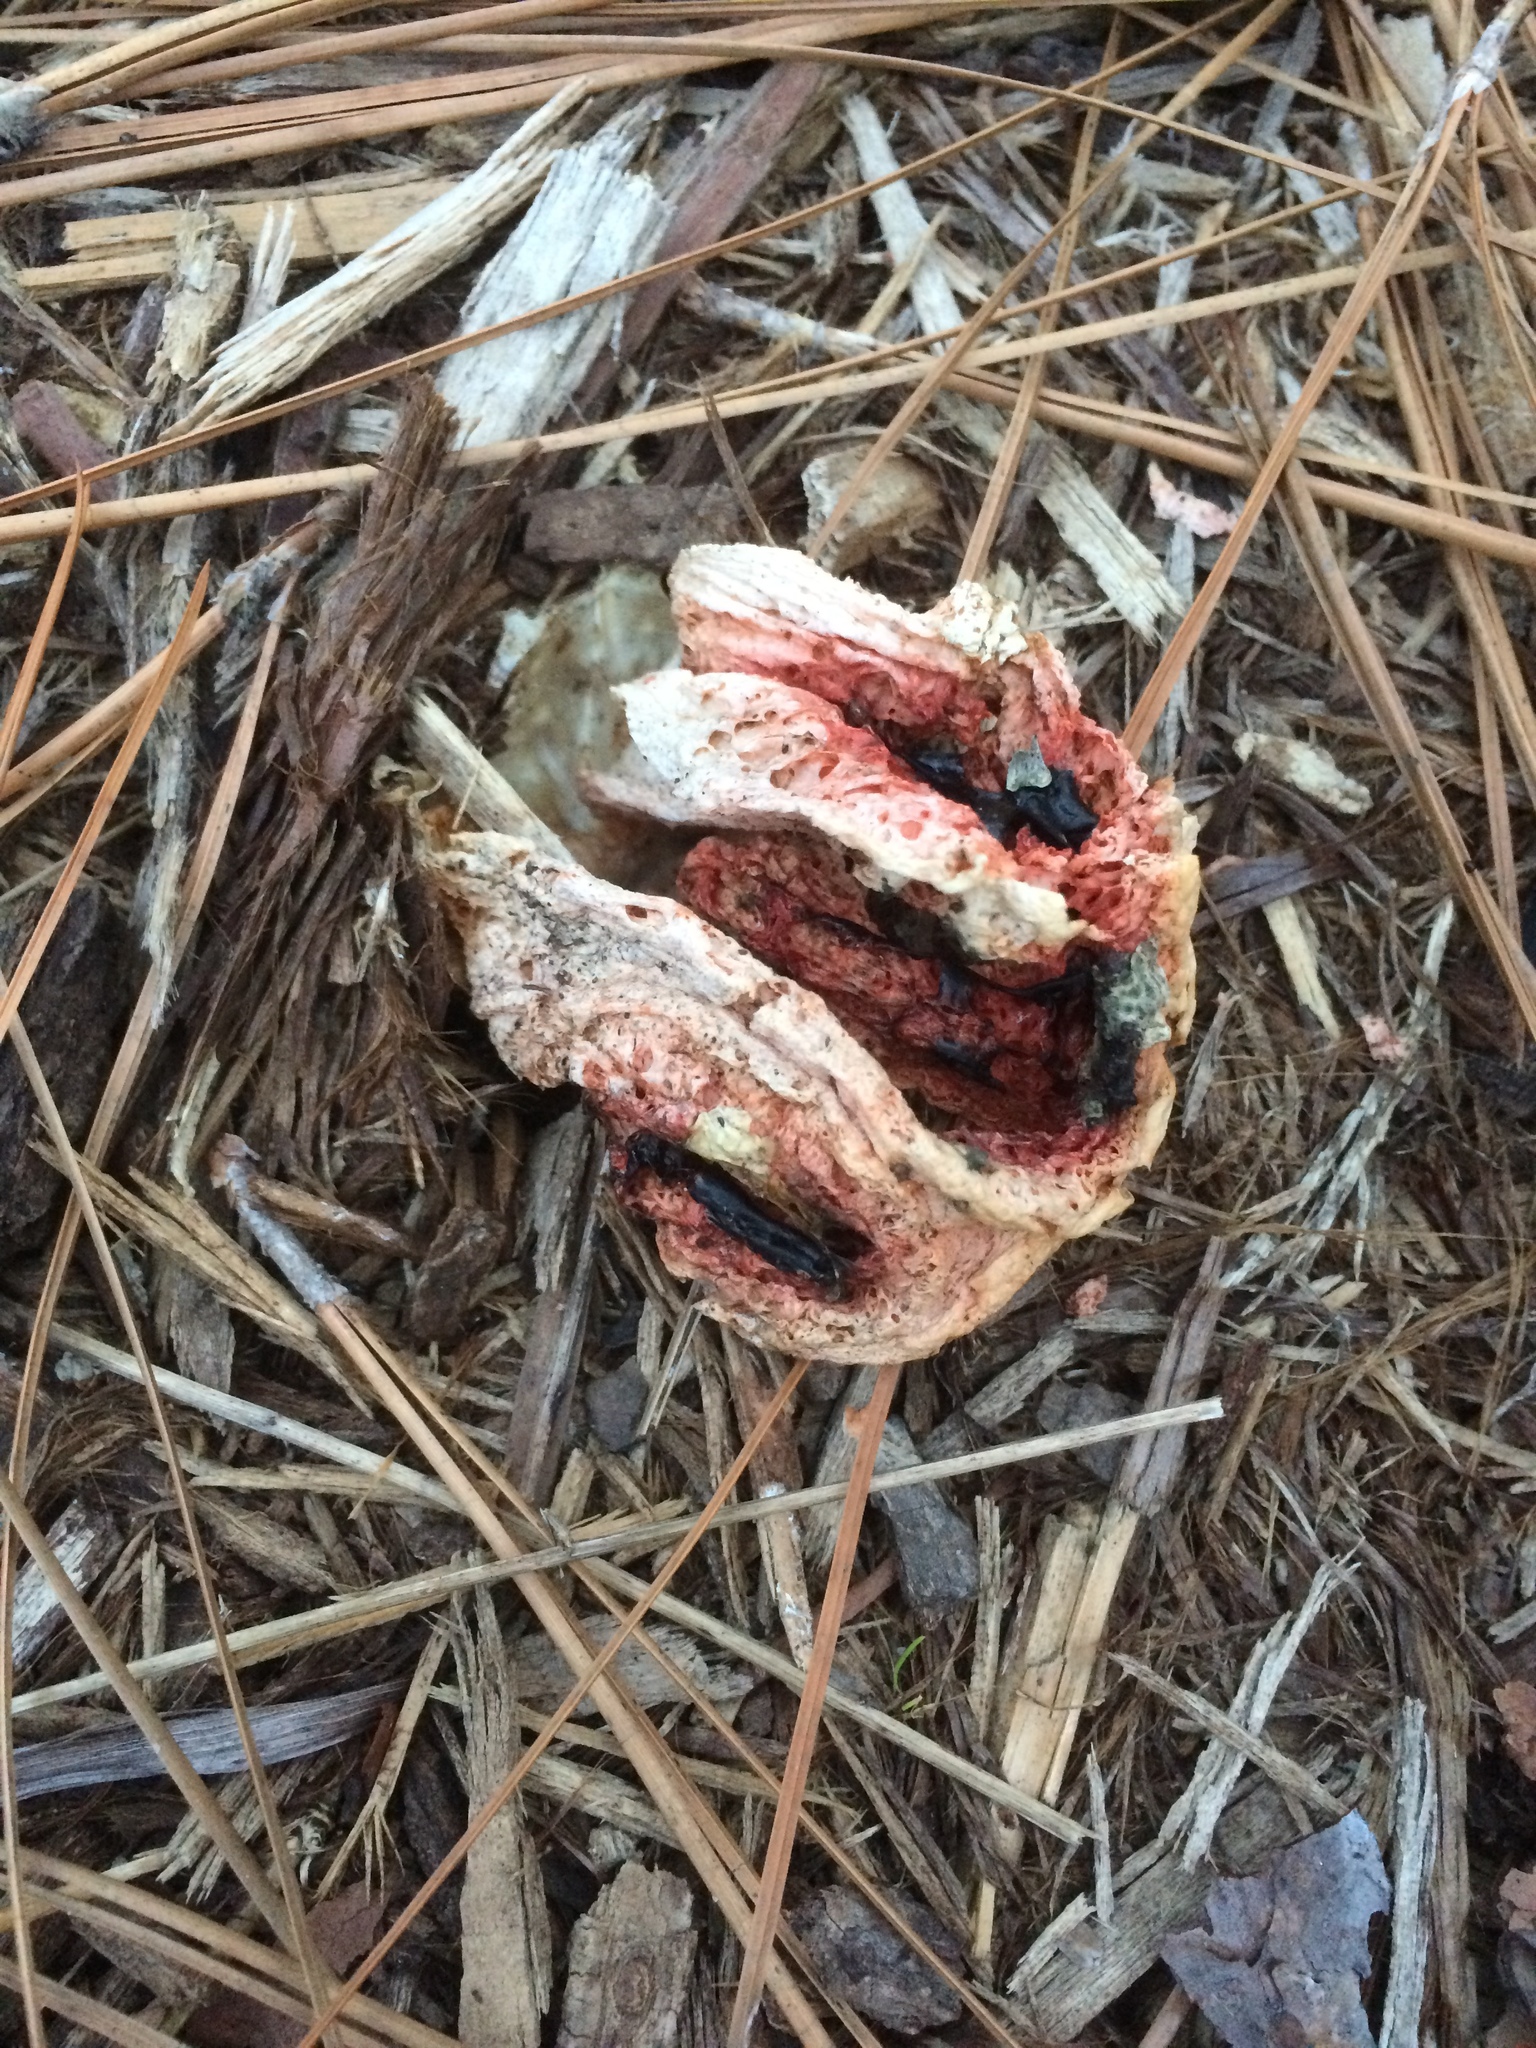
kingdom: Fungi
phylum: Basidiomycota
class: Agaricomycetes
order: Phallales
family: Phallaceae
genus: Clathrus
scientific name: Clathrus columnatus
